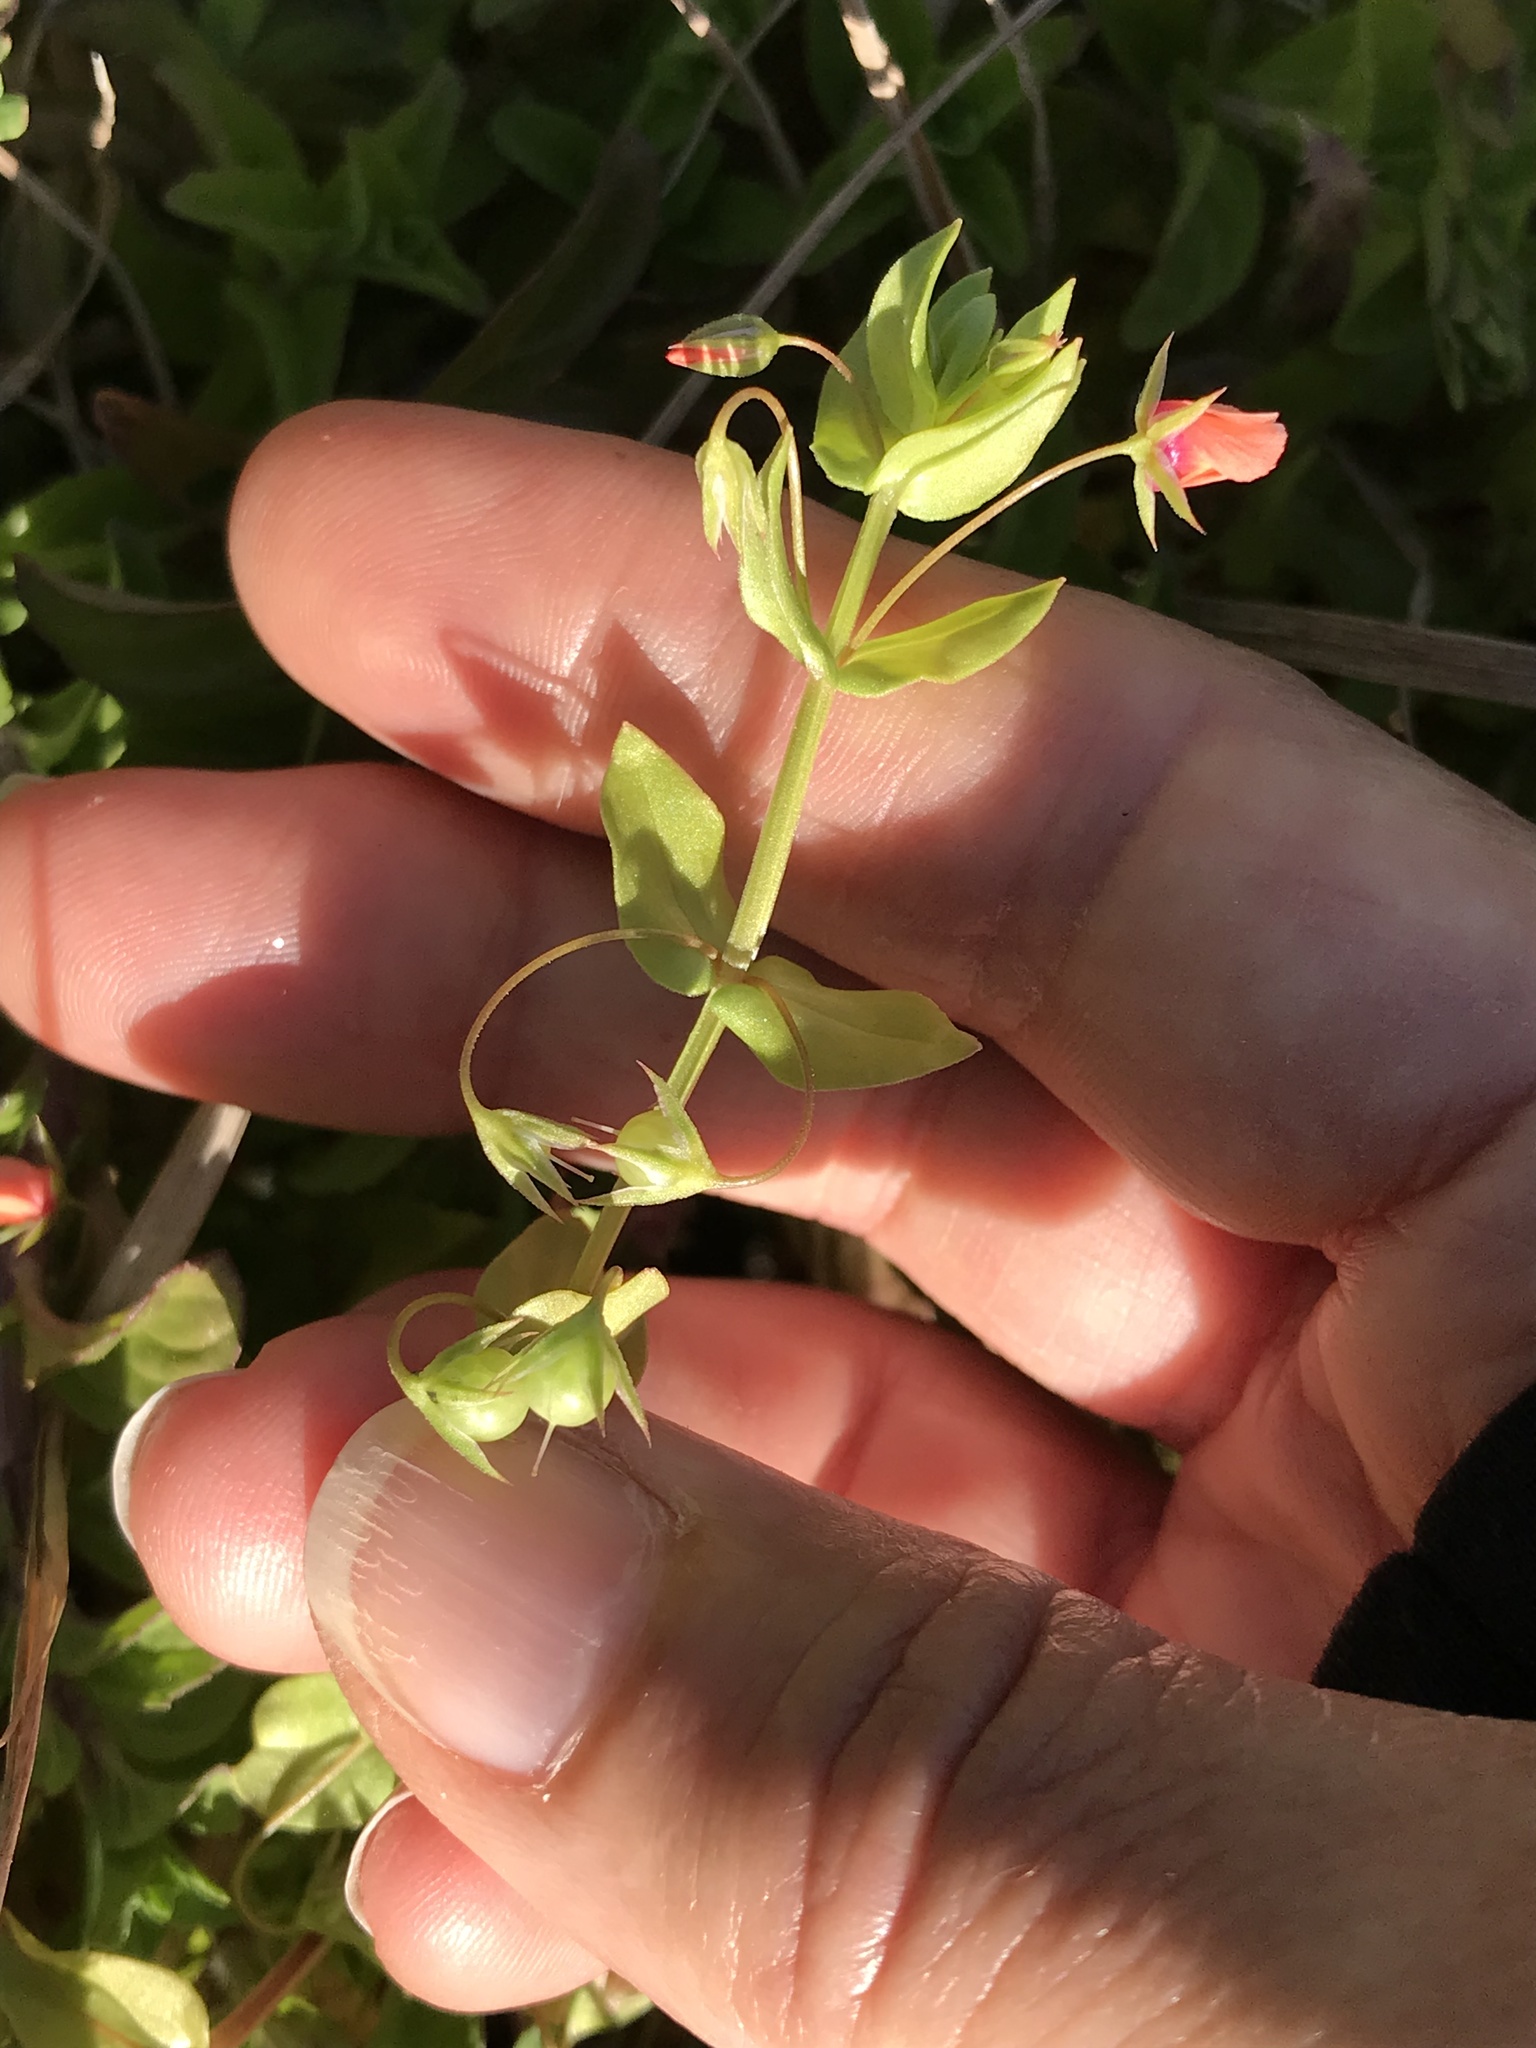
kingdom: Plantae
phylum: Tracheophyta
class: Magnoliopsida
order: Ericales
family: Primulaceae
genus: Lysimachia
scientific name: Lysimachia arvensis
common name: Scarlet pimpernel
